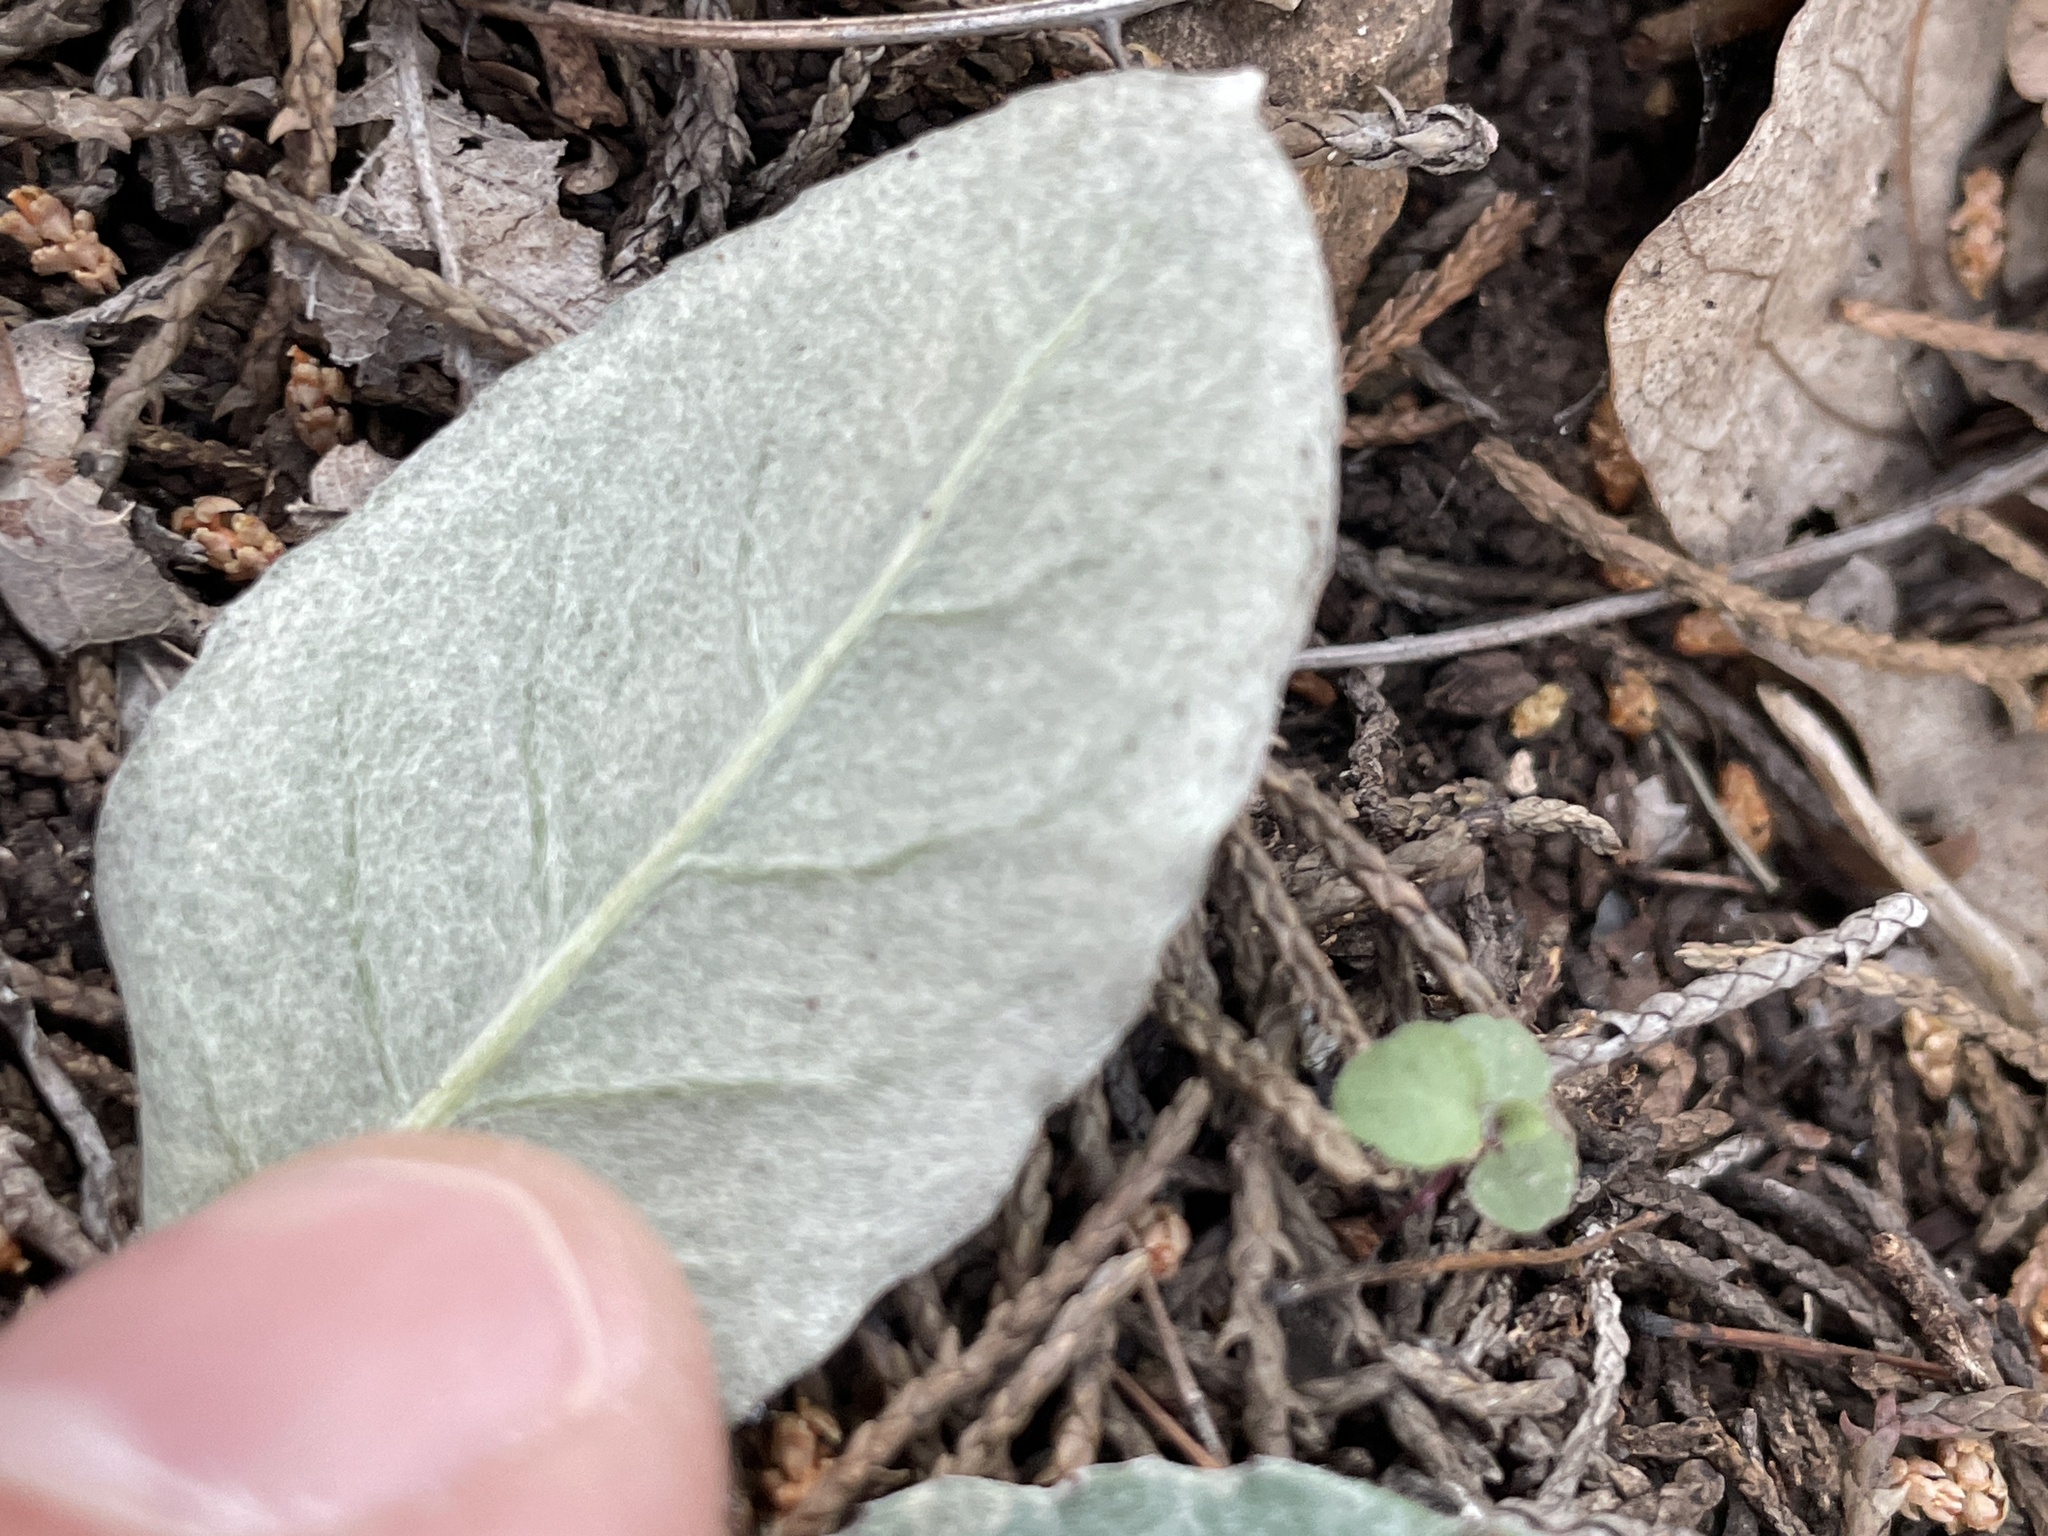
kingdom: Plantae
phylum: Tracheophyta
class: Magnoliopsida
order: Asterales
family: Asteraceae
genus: Chaptalia
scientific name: Chaptalia texana
